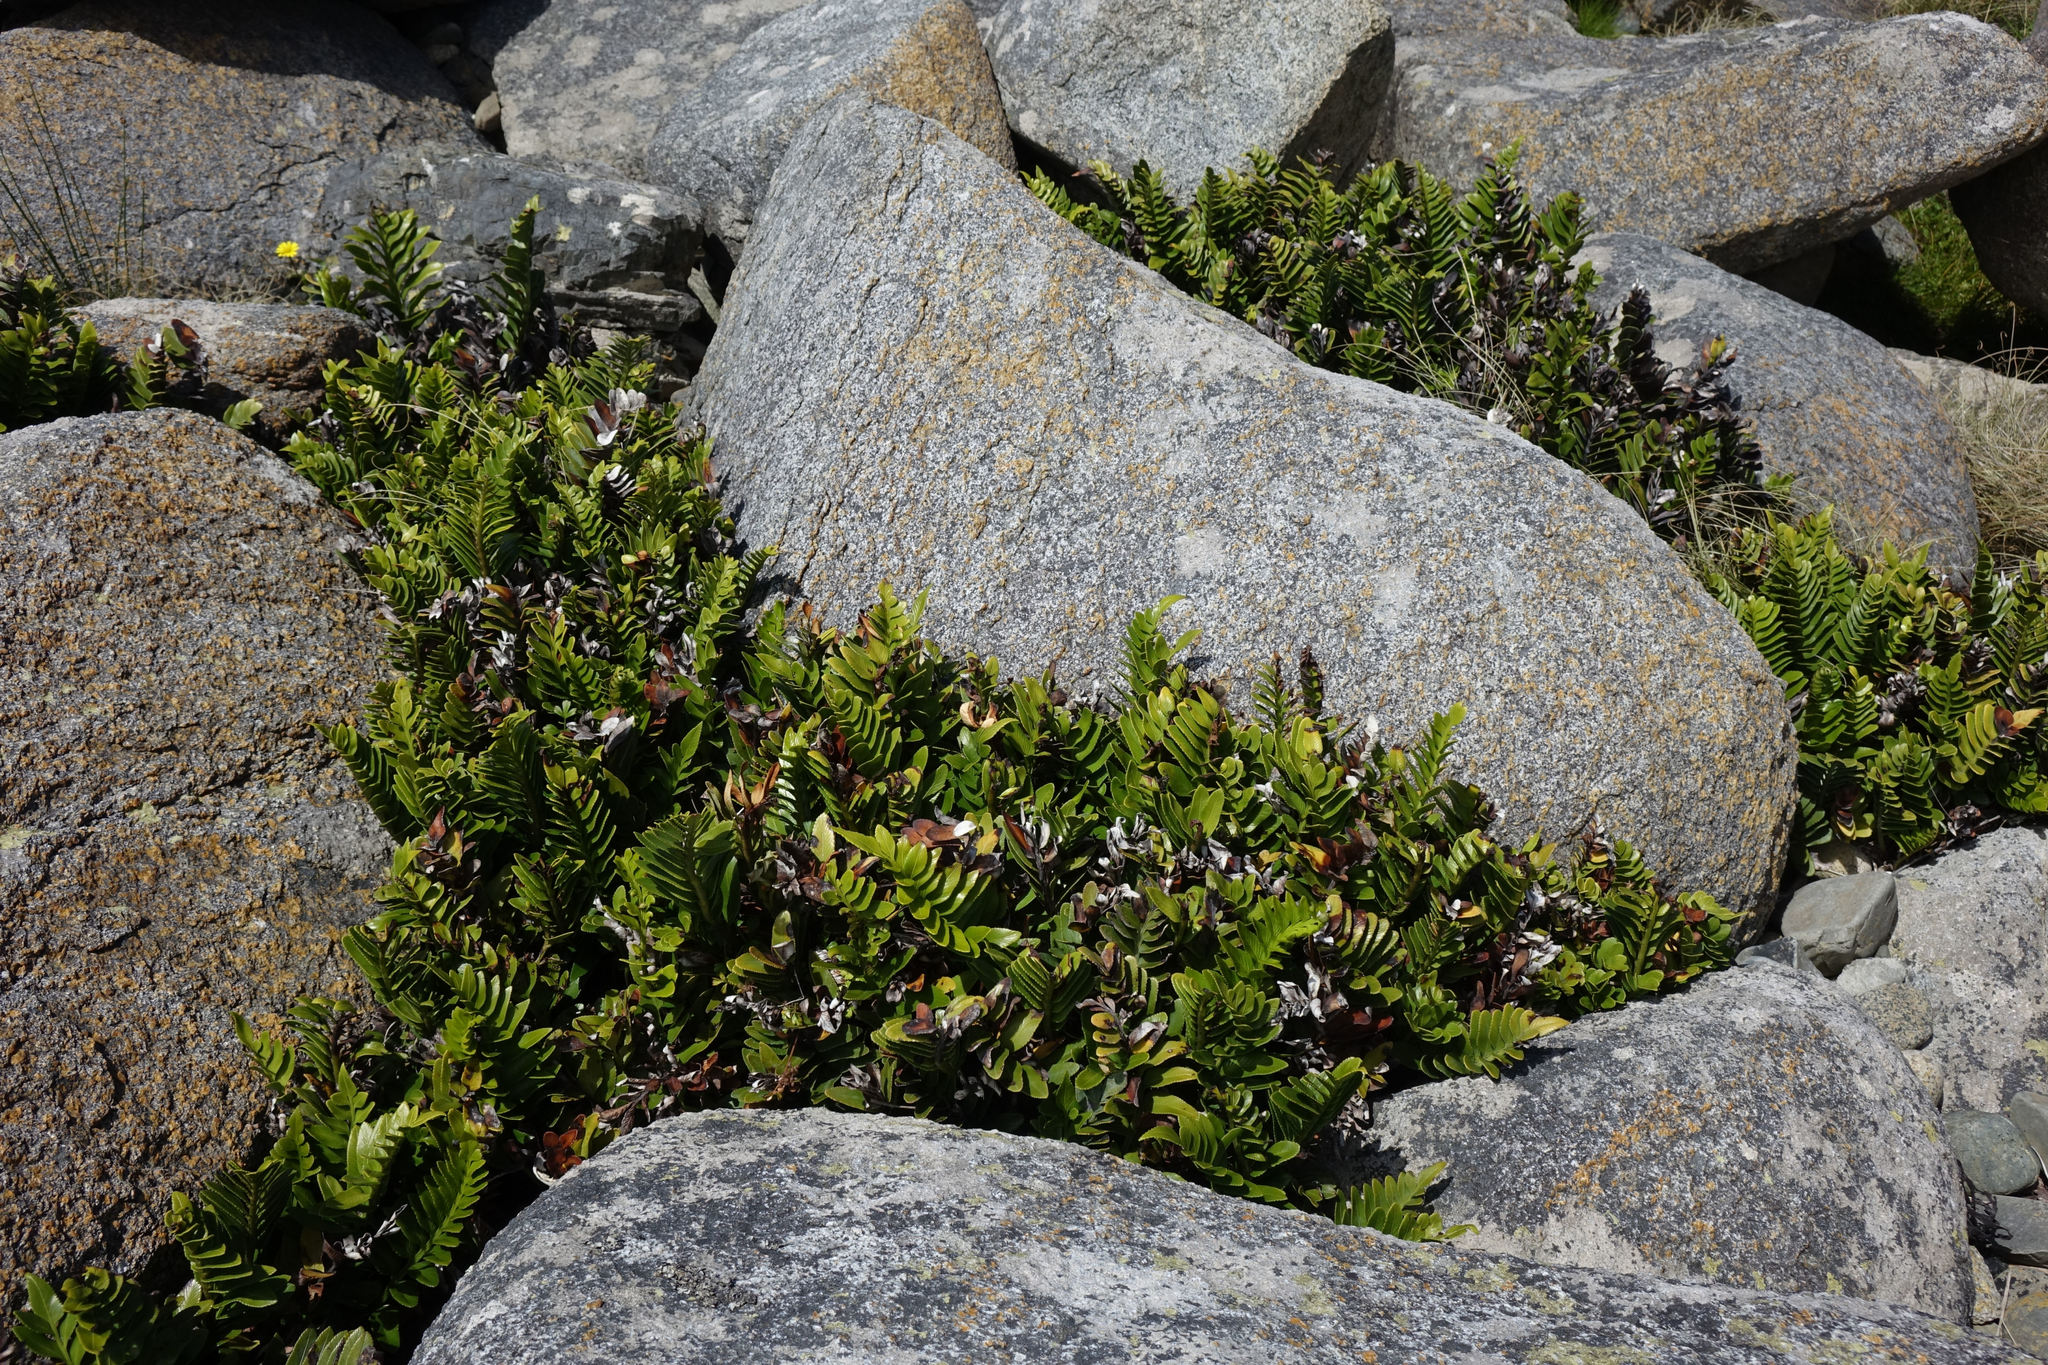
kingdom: Plantae
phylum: Tracheophyta
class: Polypodiopsida
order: Polypodiales
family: Aspleniaceae
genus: Asplenium
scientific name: Asplenium obtusatum
